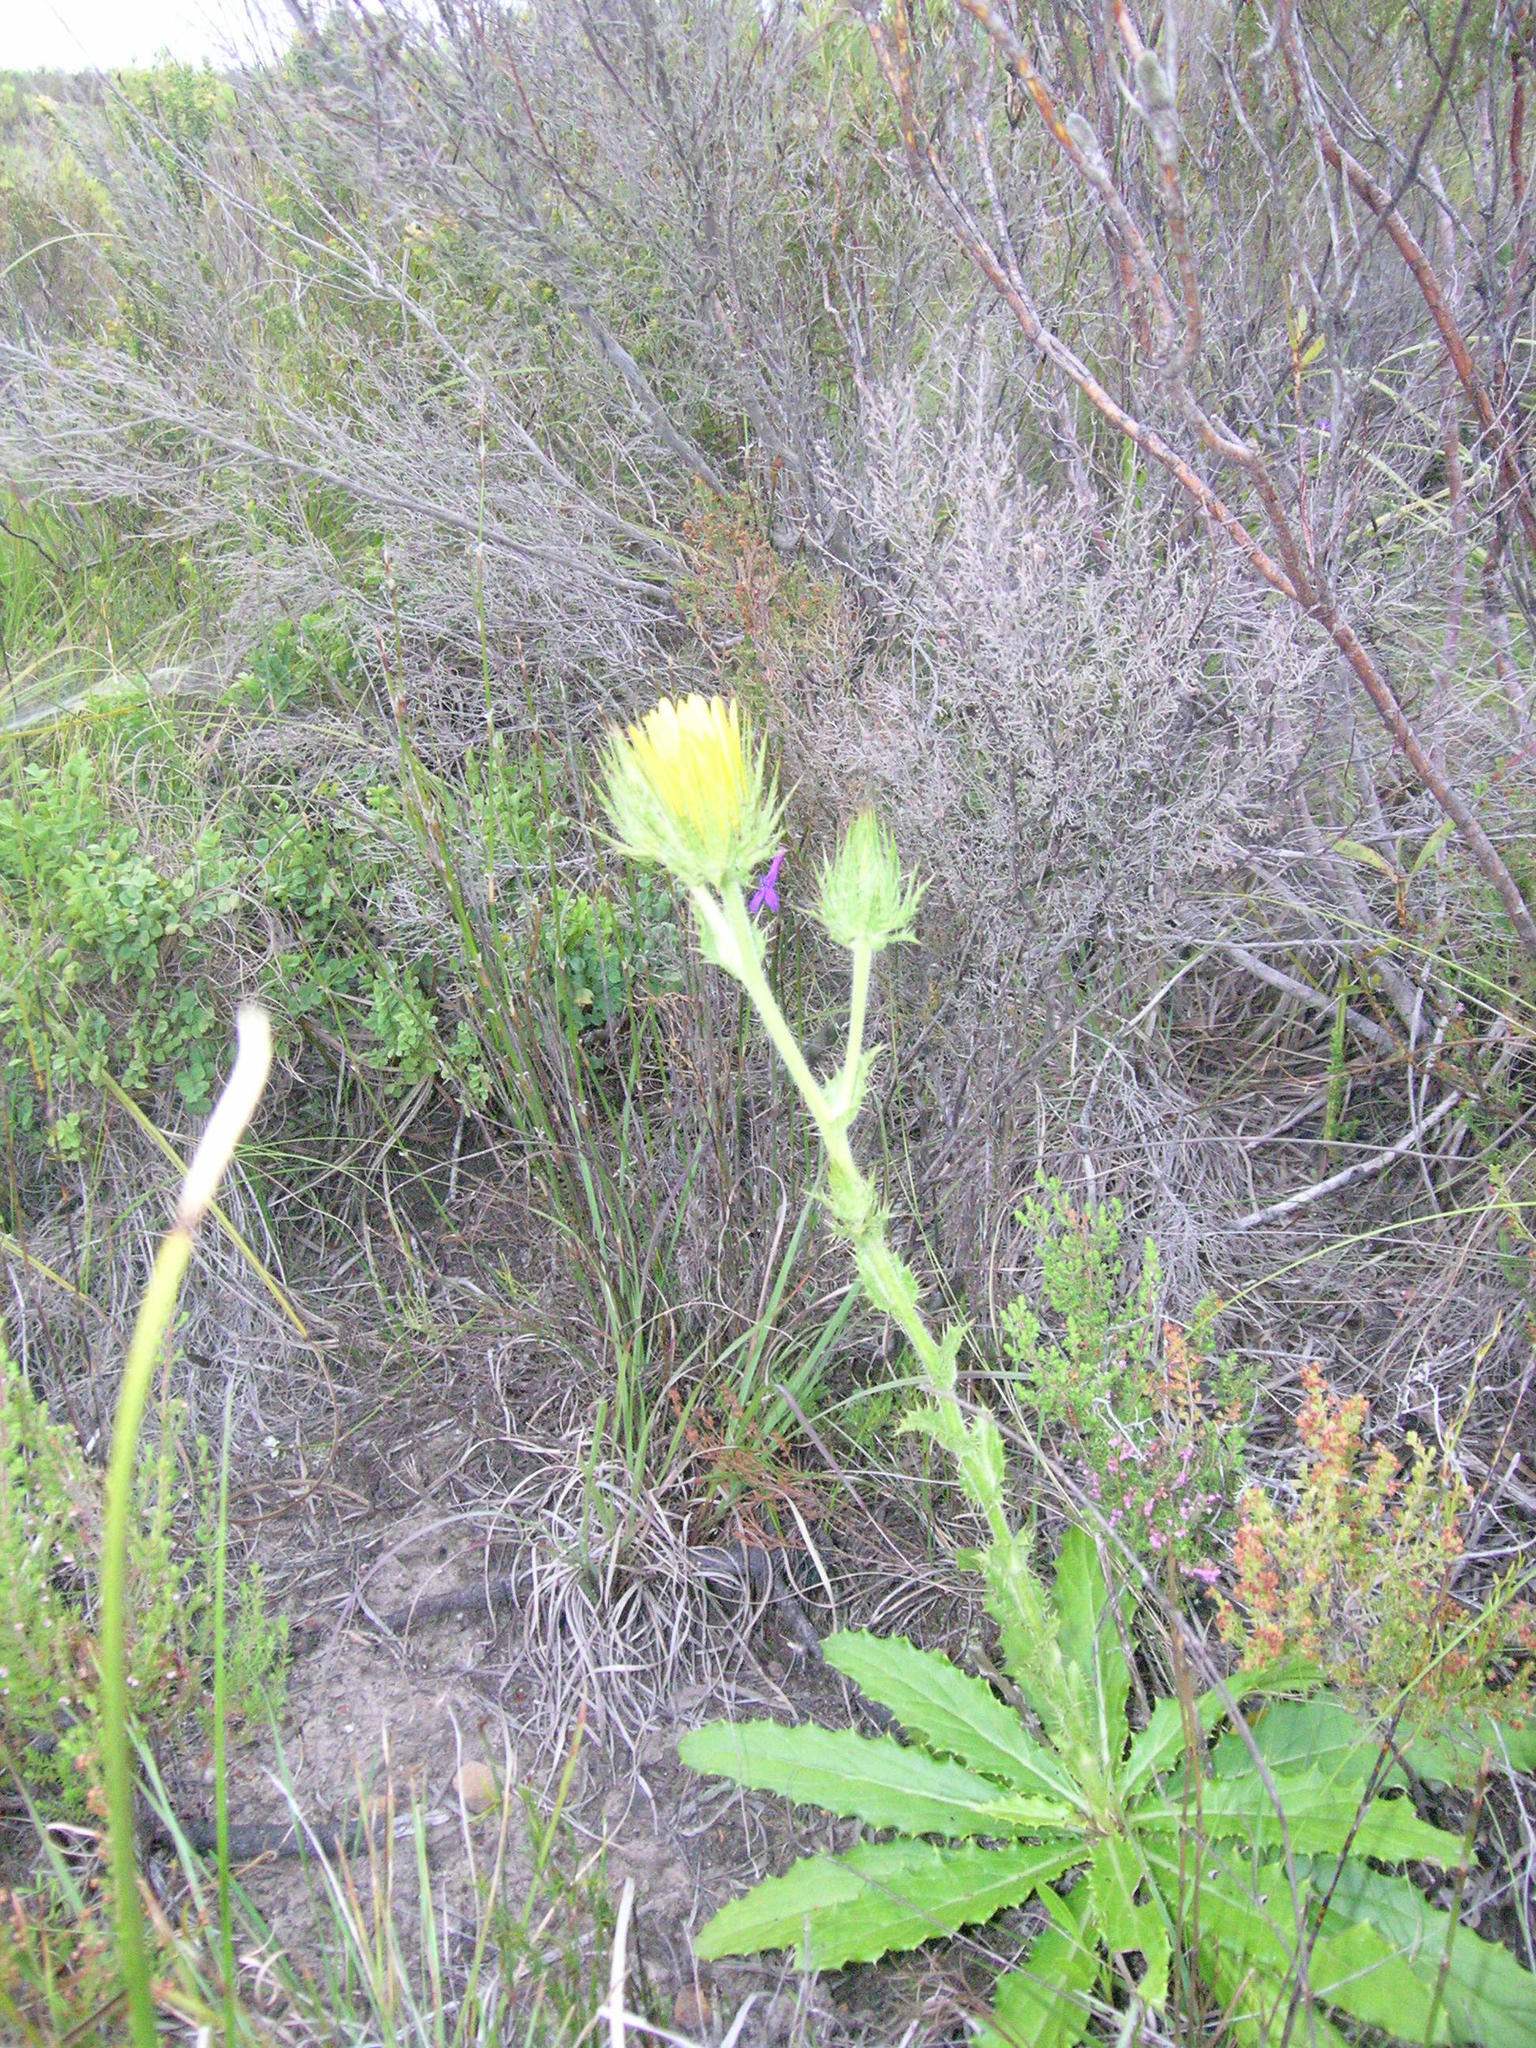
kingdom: Plantae
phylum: Tracheophyta
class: Magnoliopsida
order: Asterales
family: Asteraceae
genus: Berkheya
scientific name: Berkheya carlinoides
